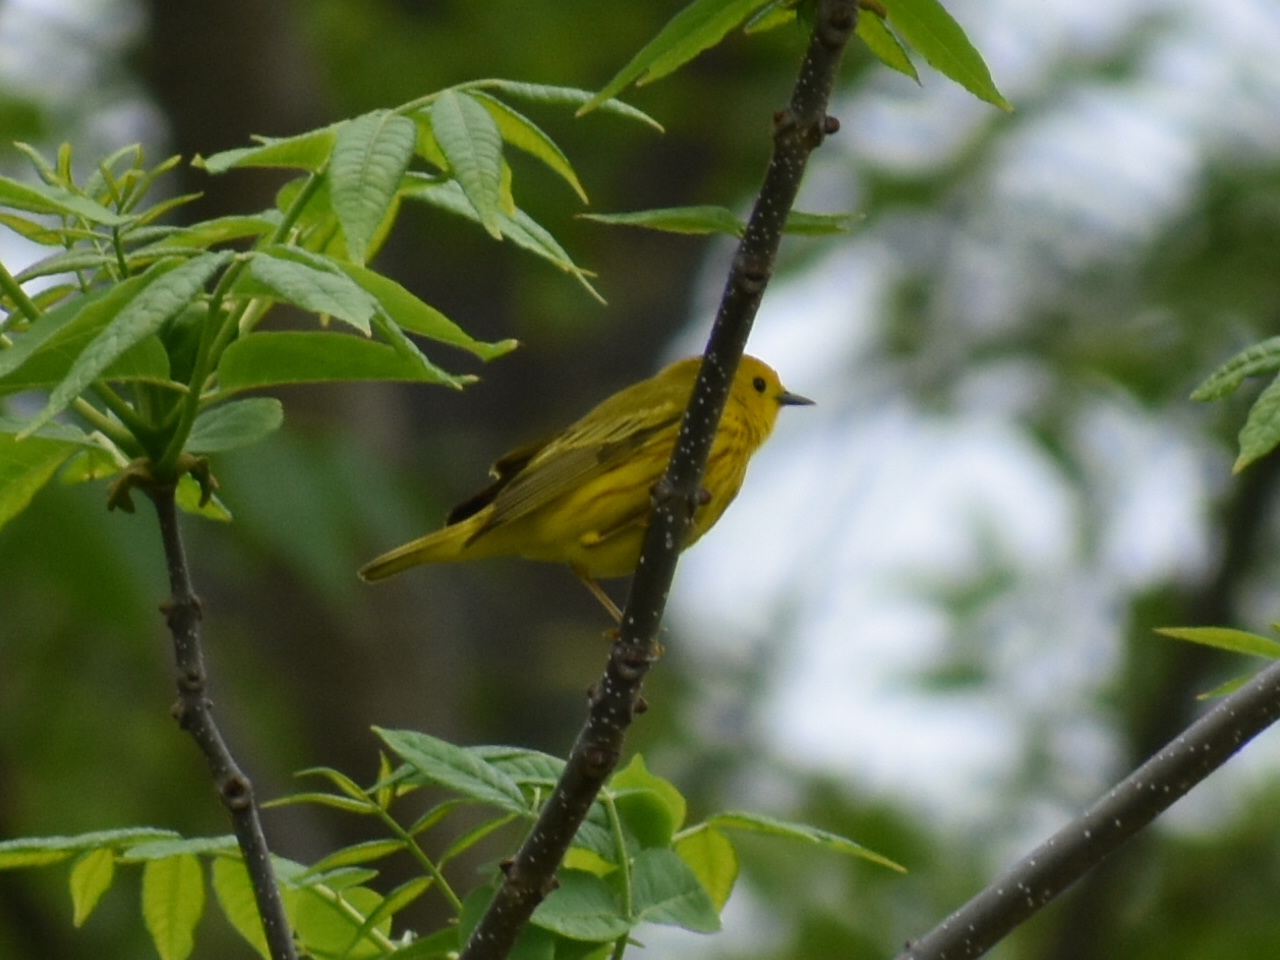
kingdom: Animalia
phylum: Chordata
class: Aves
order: Passeriformes
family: Parulidae
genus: Setophaga
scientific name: Setophaga petechia
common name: Yellow warbler
